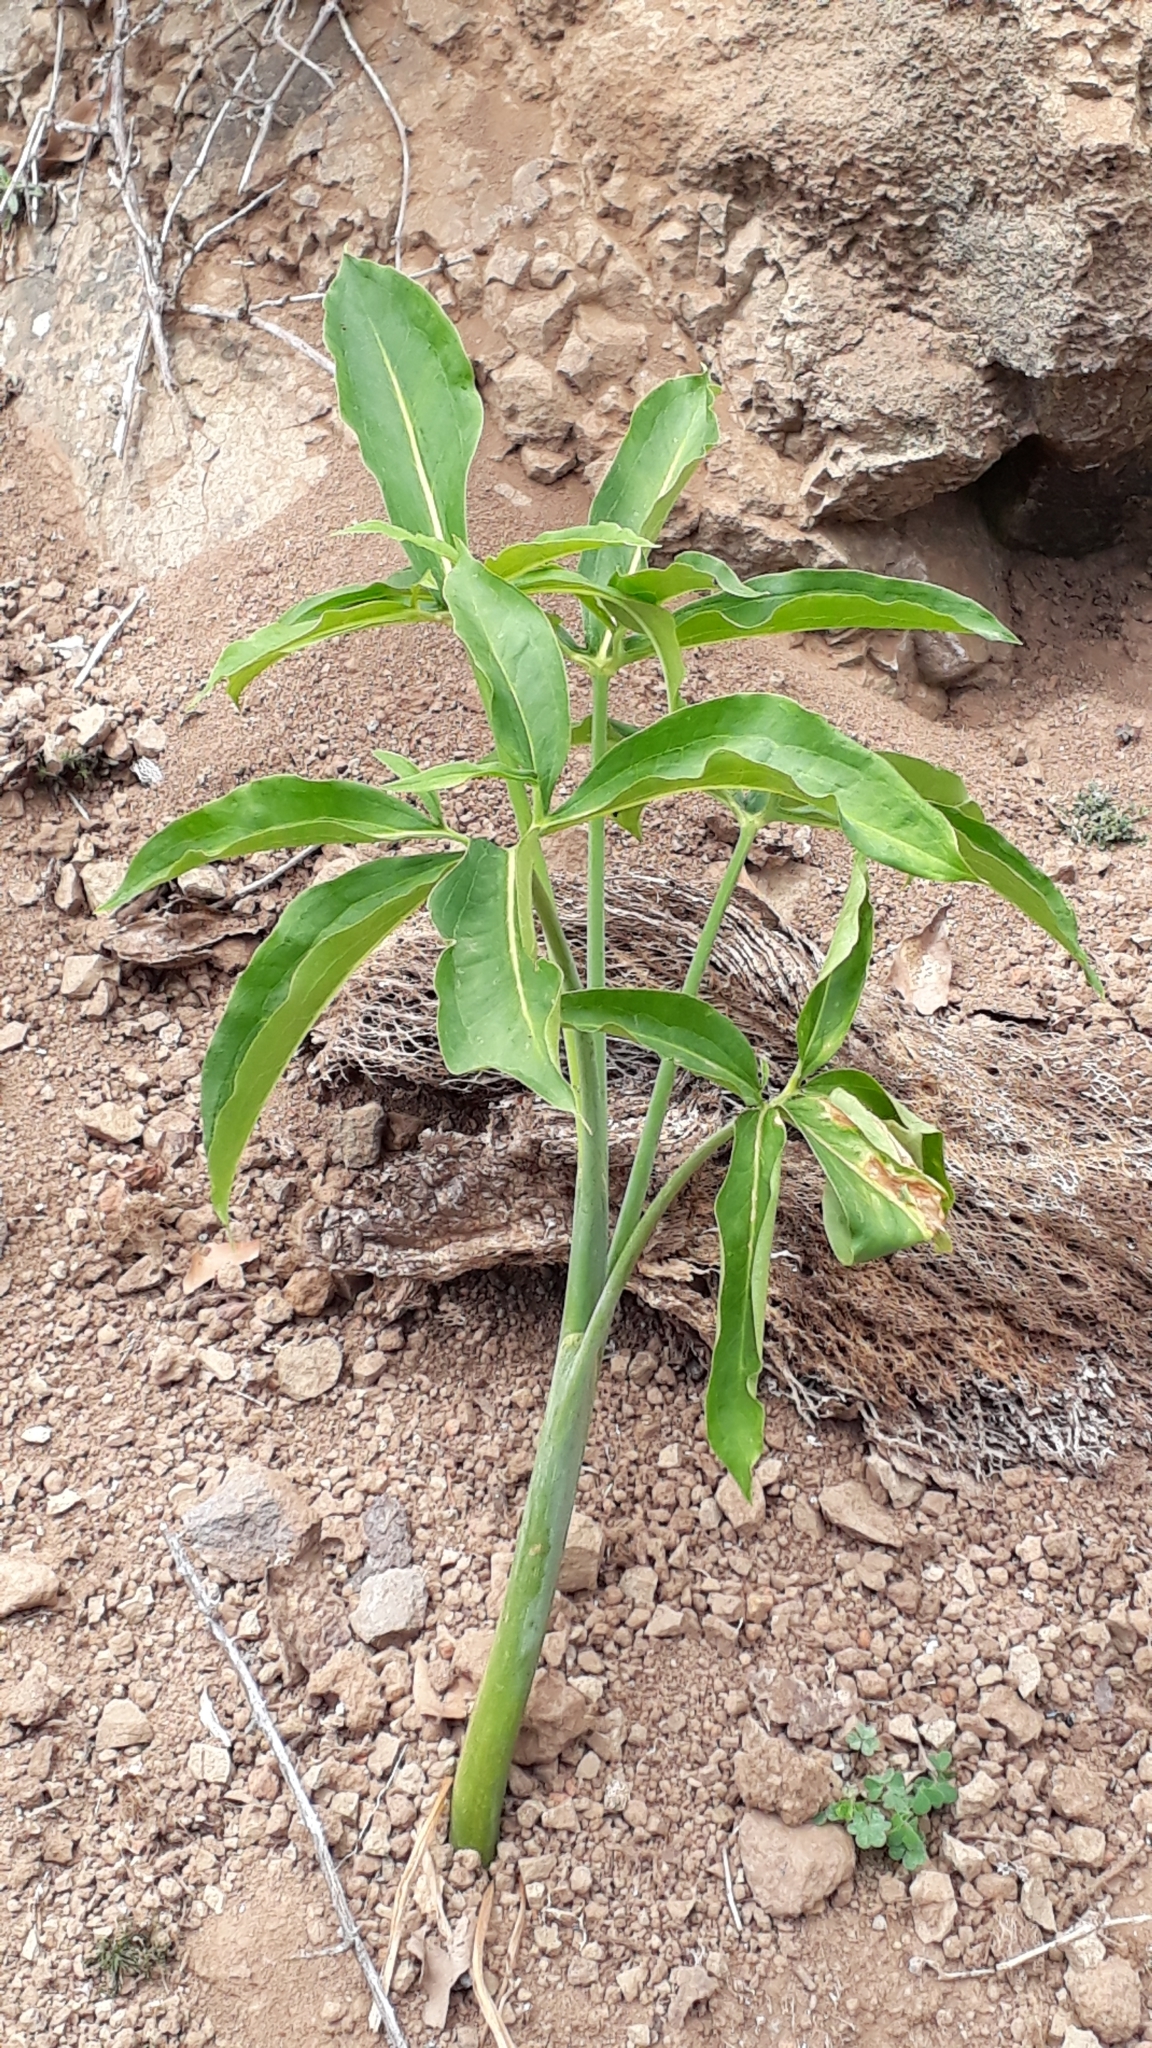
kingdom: Plantae
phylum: Tracheophyta
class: Liliopsida
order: Alismatales
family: Araceae
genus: Dracunculus
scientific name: Dracunculus canariensis
